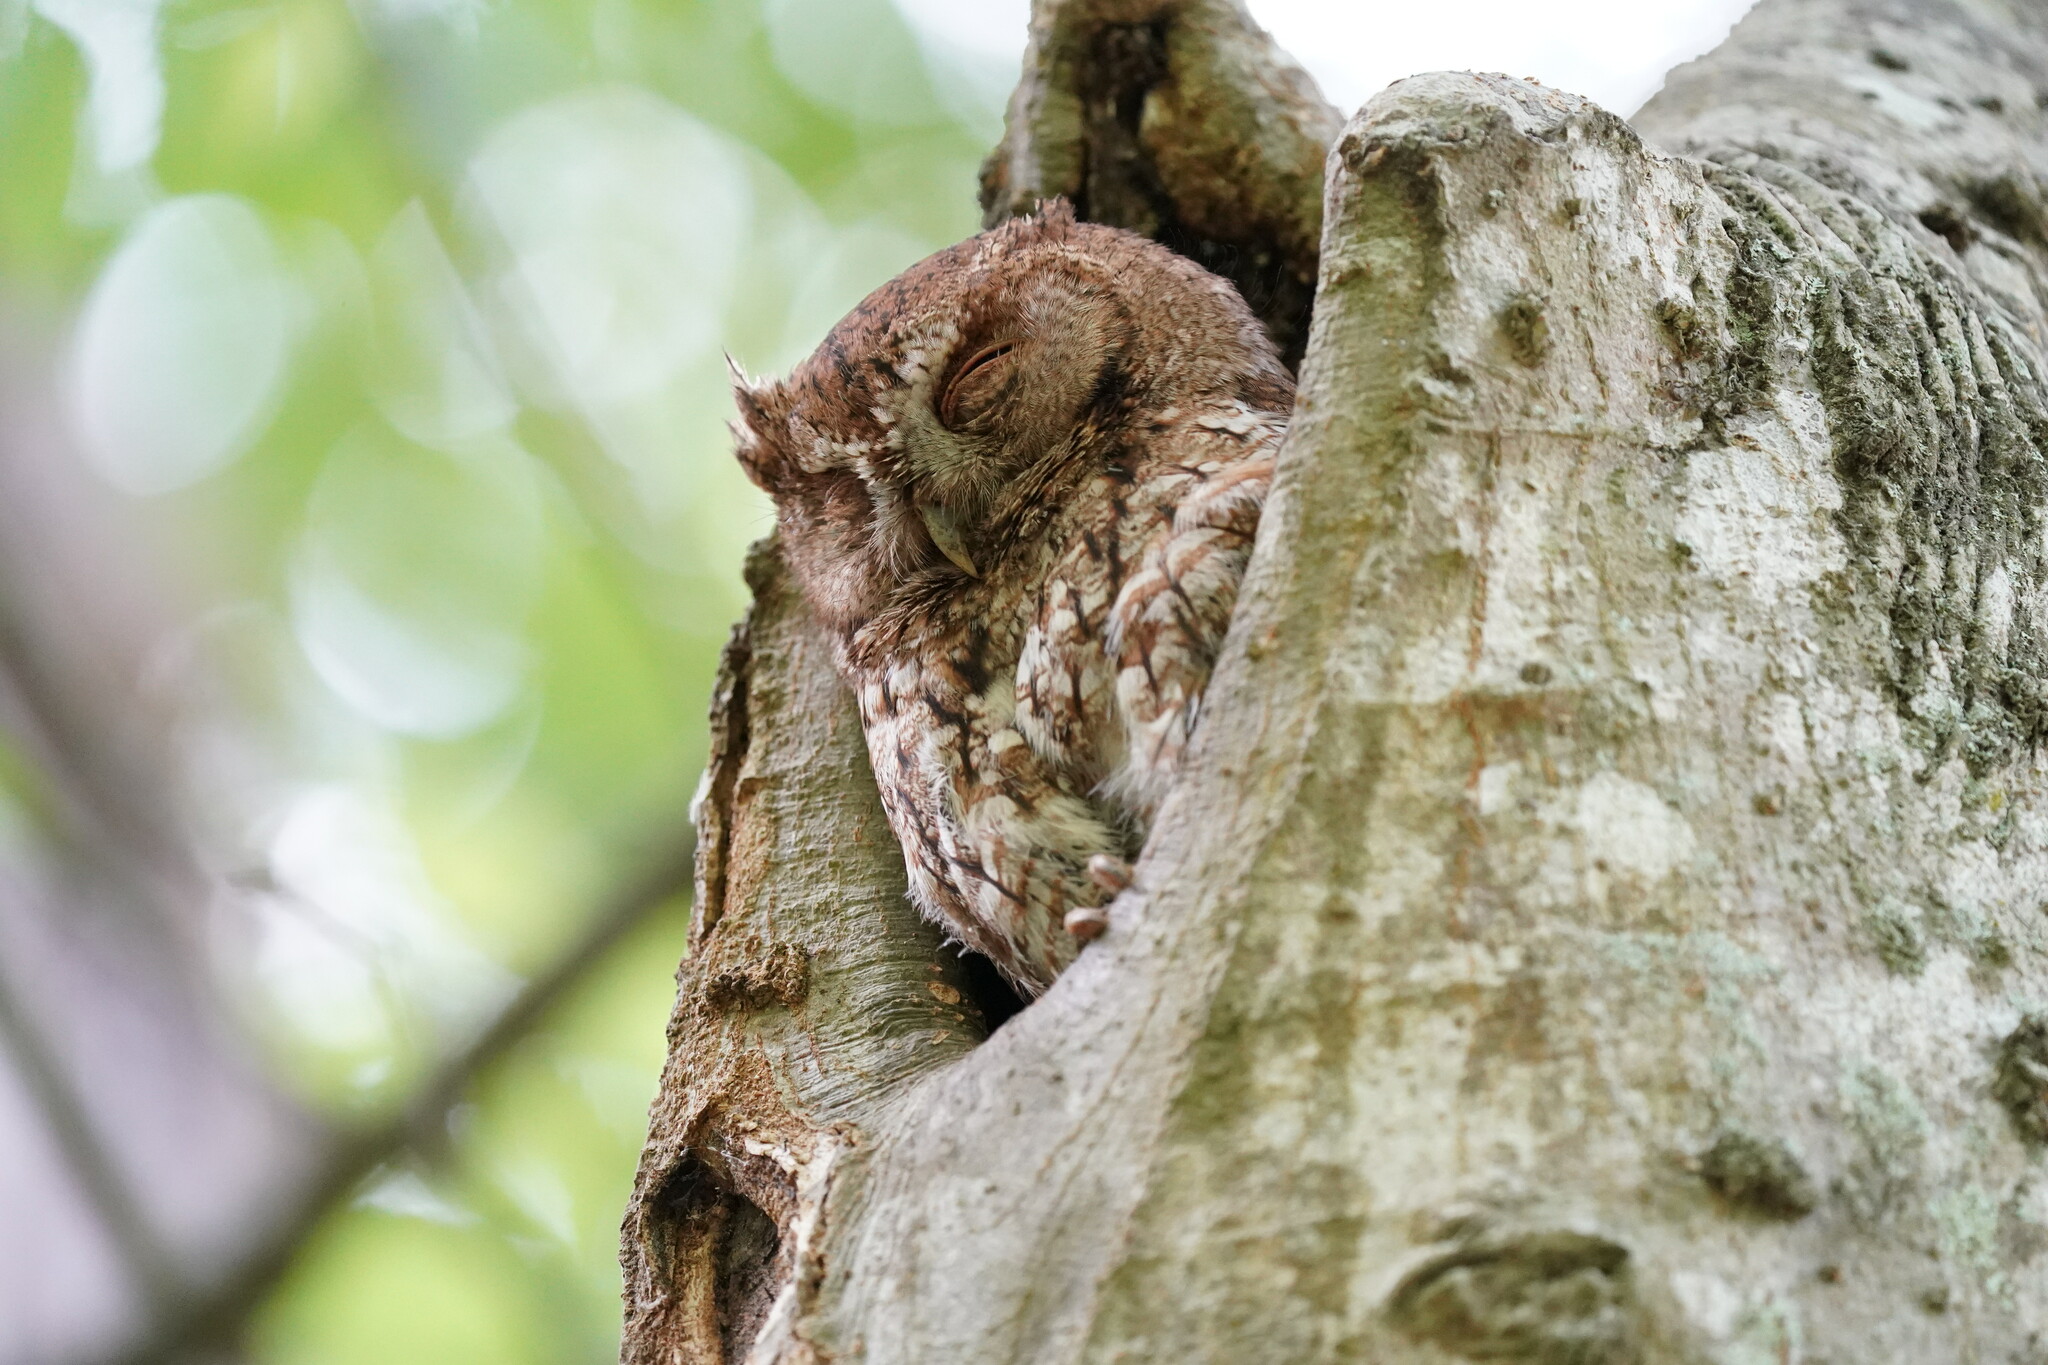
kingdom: Animalia
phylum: Chordata
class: Aves
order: Strigiformes
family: Strigidae
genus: Megascops
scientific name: Megascops asio
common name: Eastern screech-owl
